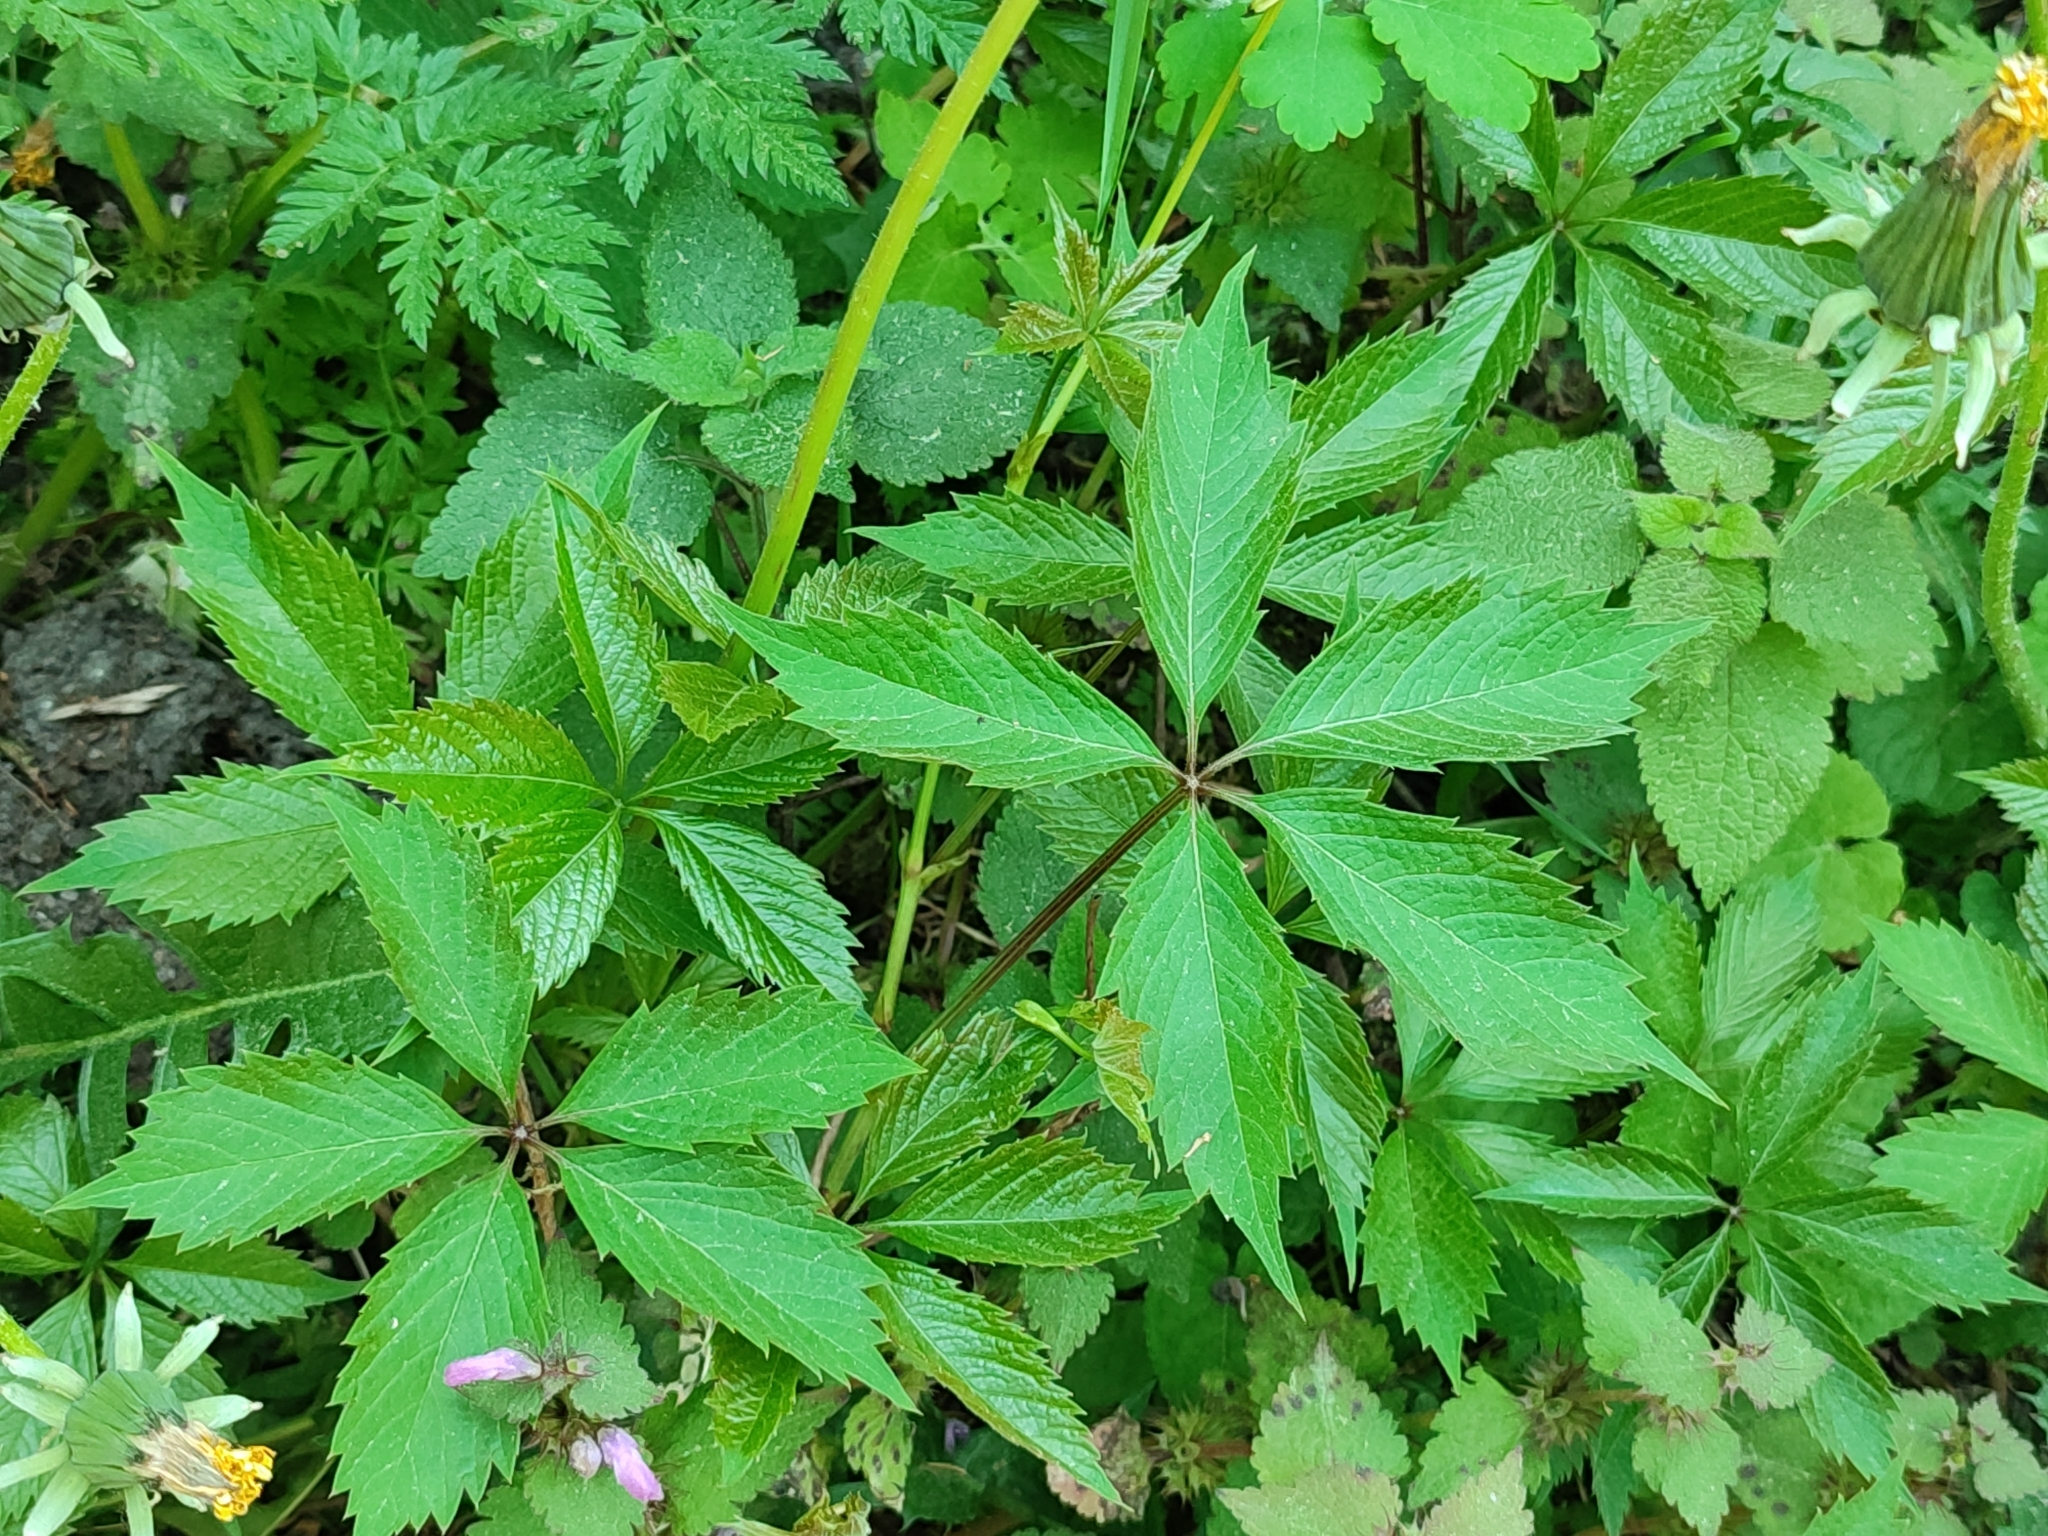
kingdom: Plantae
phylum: Tracheophyta
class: Magnoliopsida
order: Vitales
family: Vitaceae
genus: Parthenocissus
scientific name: Parthenocissus inserta
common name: False virginia-creeper
